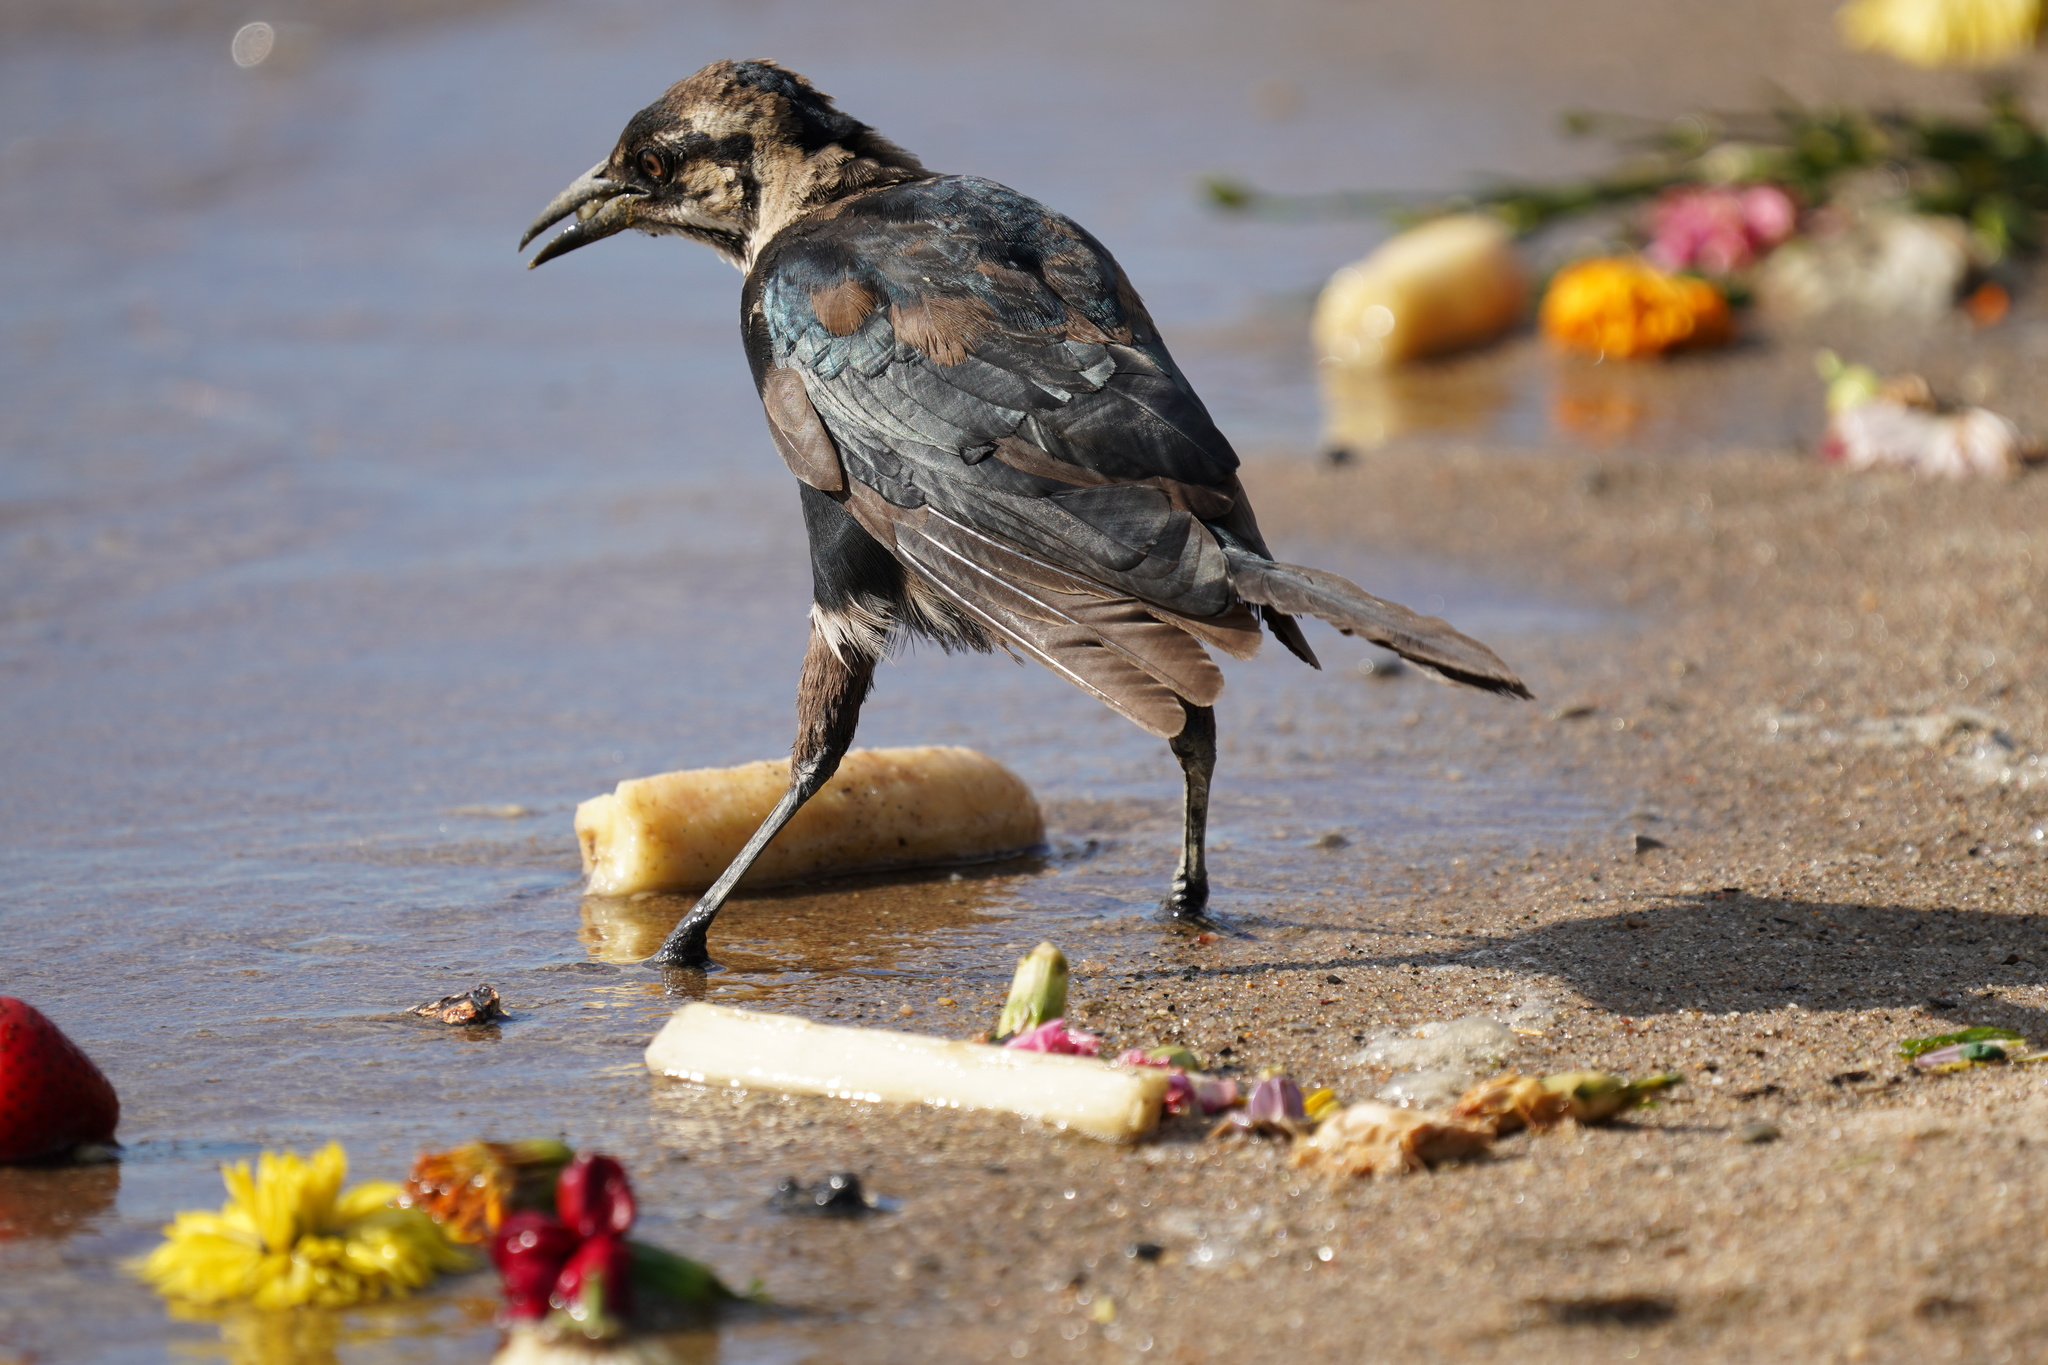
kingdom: Animalia
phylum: Chordata
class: Aves
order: Passeriformes
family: Icteridae
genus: Quiscalus
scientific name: Quiscalus major
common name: Boat-tailed grackle
